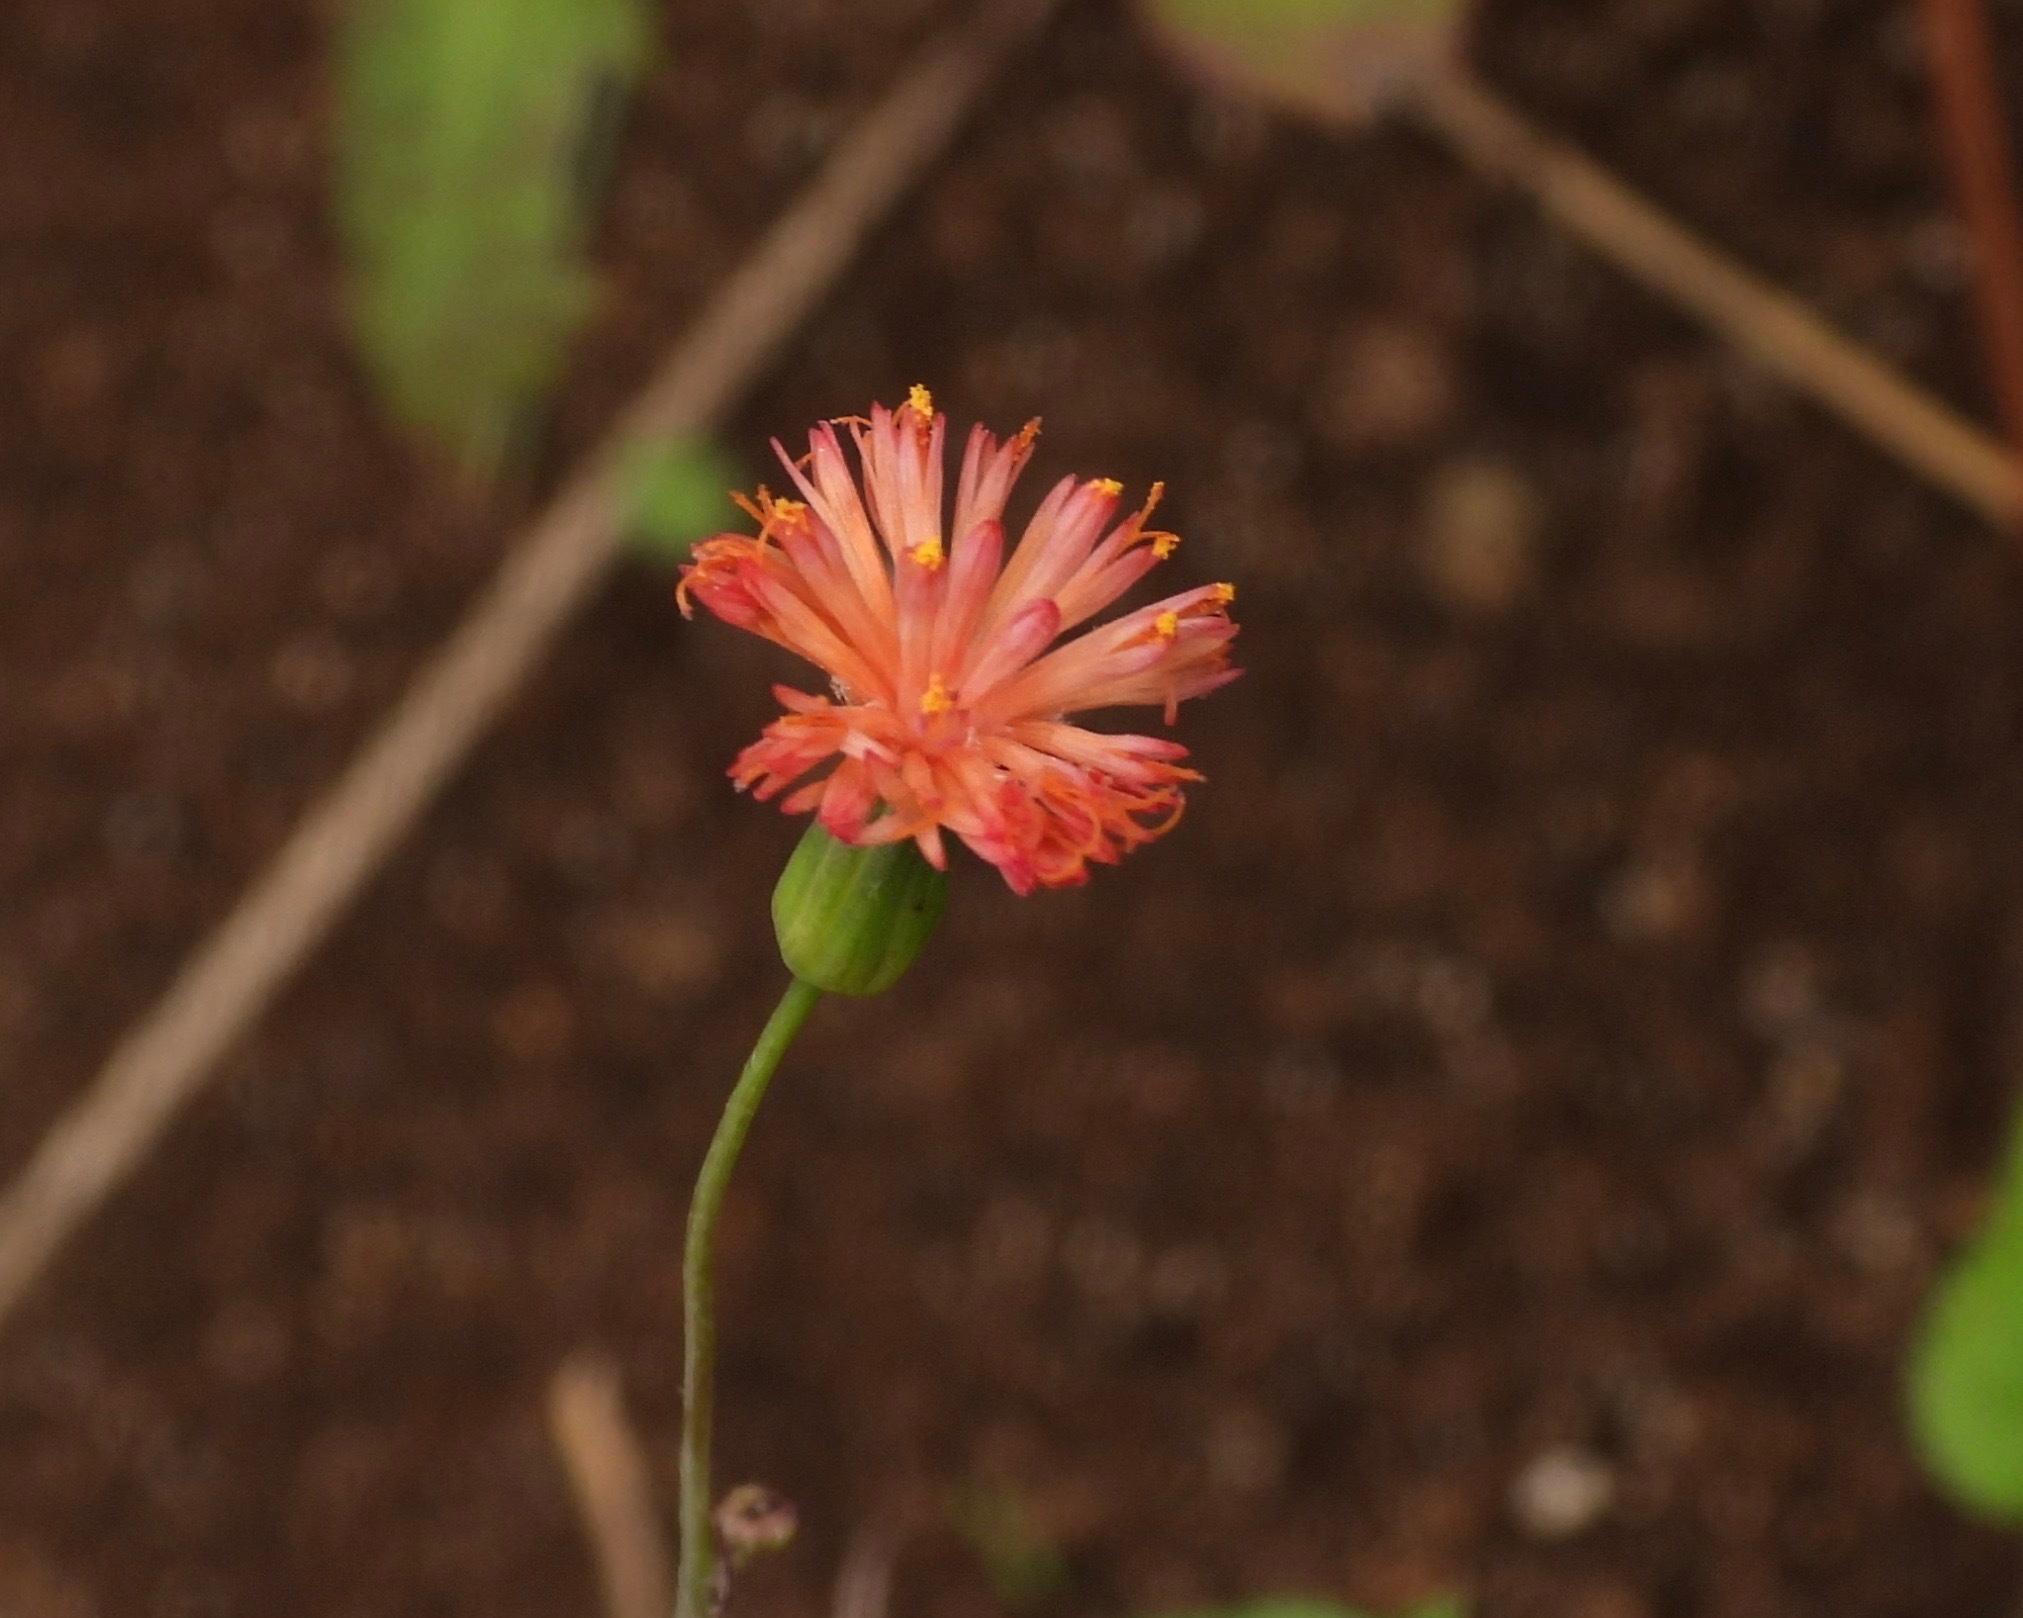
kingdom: Plantae
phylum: Tracheophyta
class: Magnoliopsida
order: Asterales
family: Asteraceae
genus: Emilia
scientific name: Emilia fosbergii
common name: Florida tasselflower
